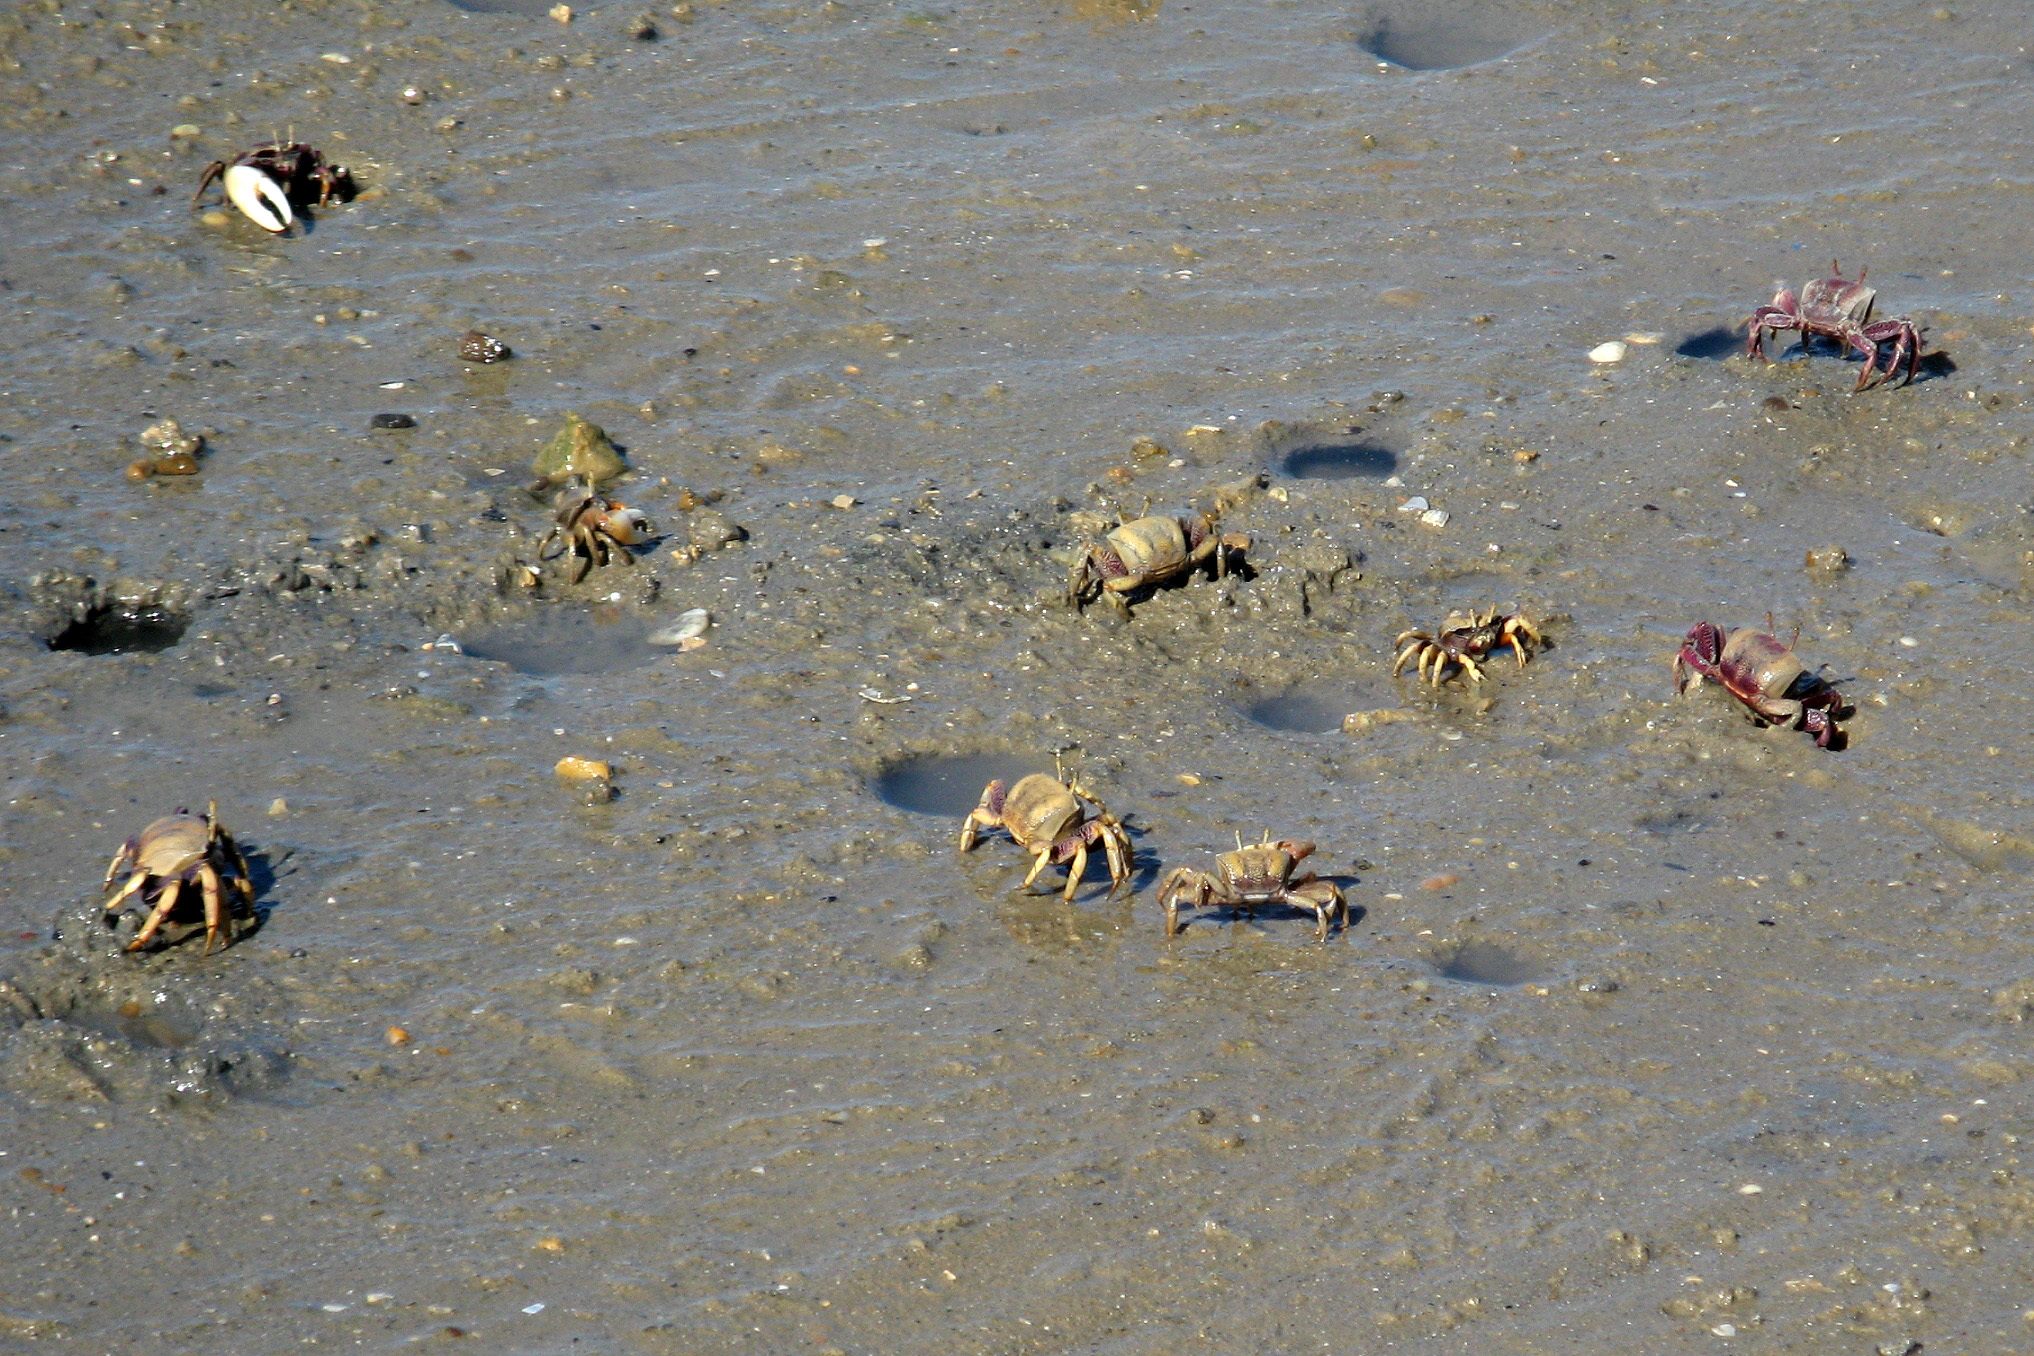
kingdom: Animalia
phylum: Arthropoda
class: Malacostraca
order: Decapoda
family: Ocypodidae
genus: Afruca
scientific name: Afruca tangeri
